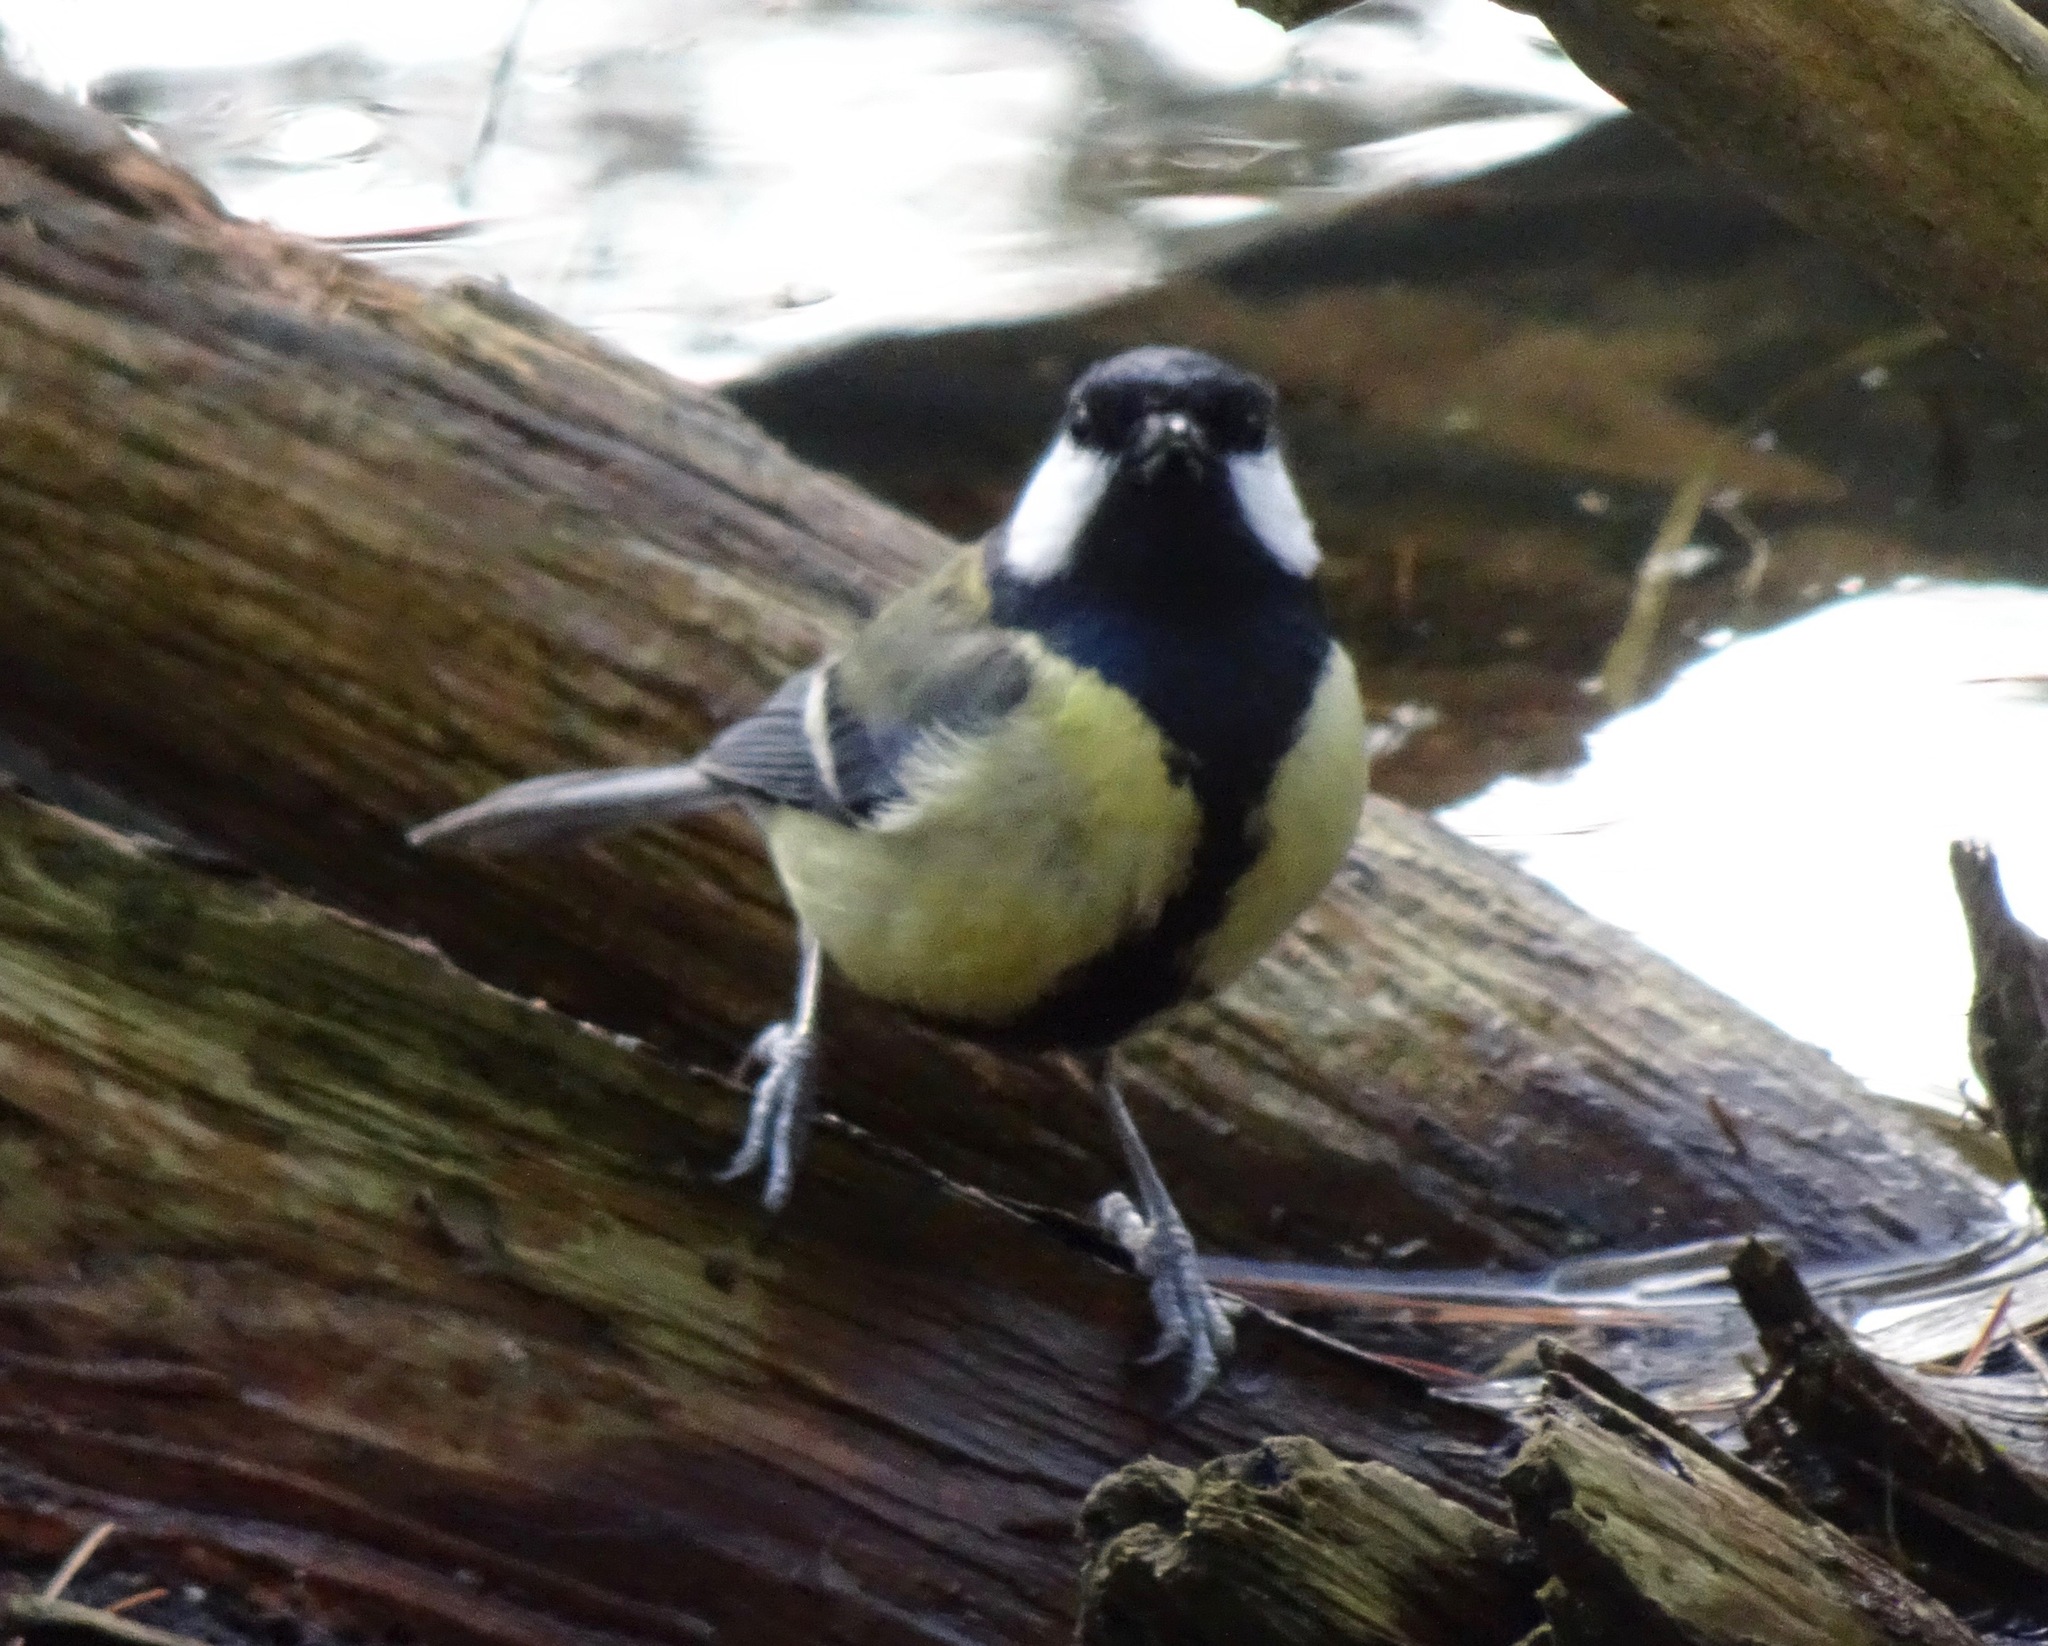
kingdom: Animalia
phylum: Chordata
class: Aves
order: Passeriformes
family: Paridae
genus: Parus
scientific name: Parus major
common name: Great tit
